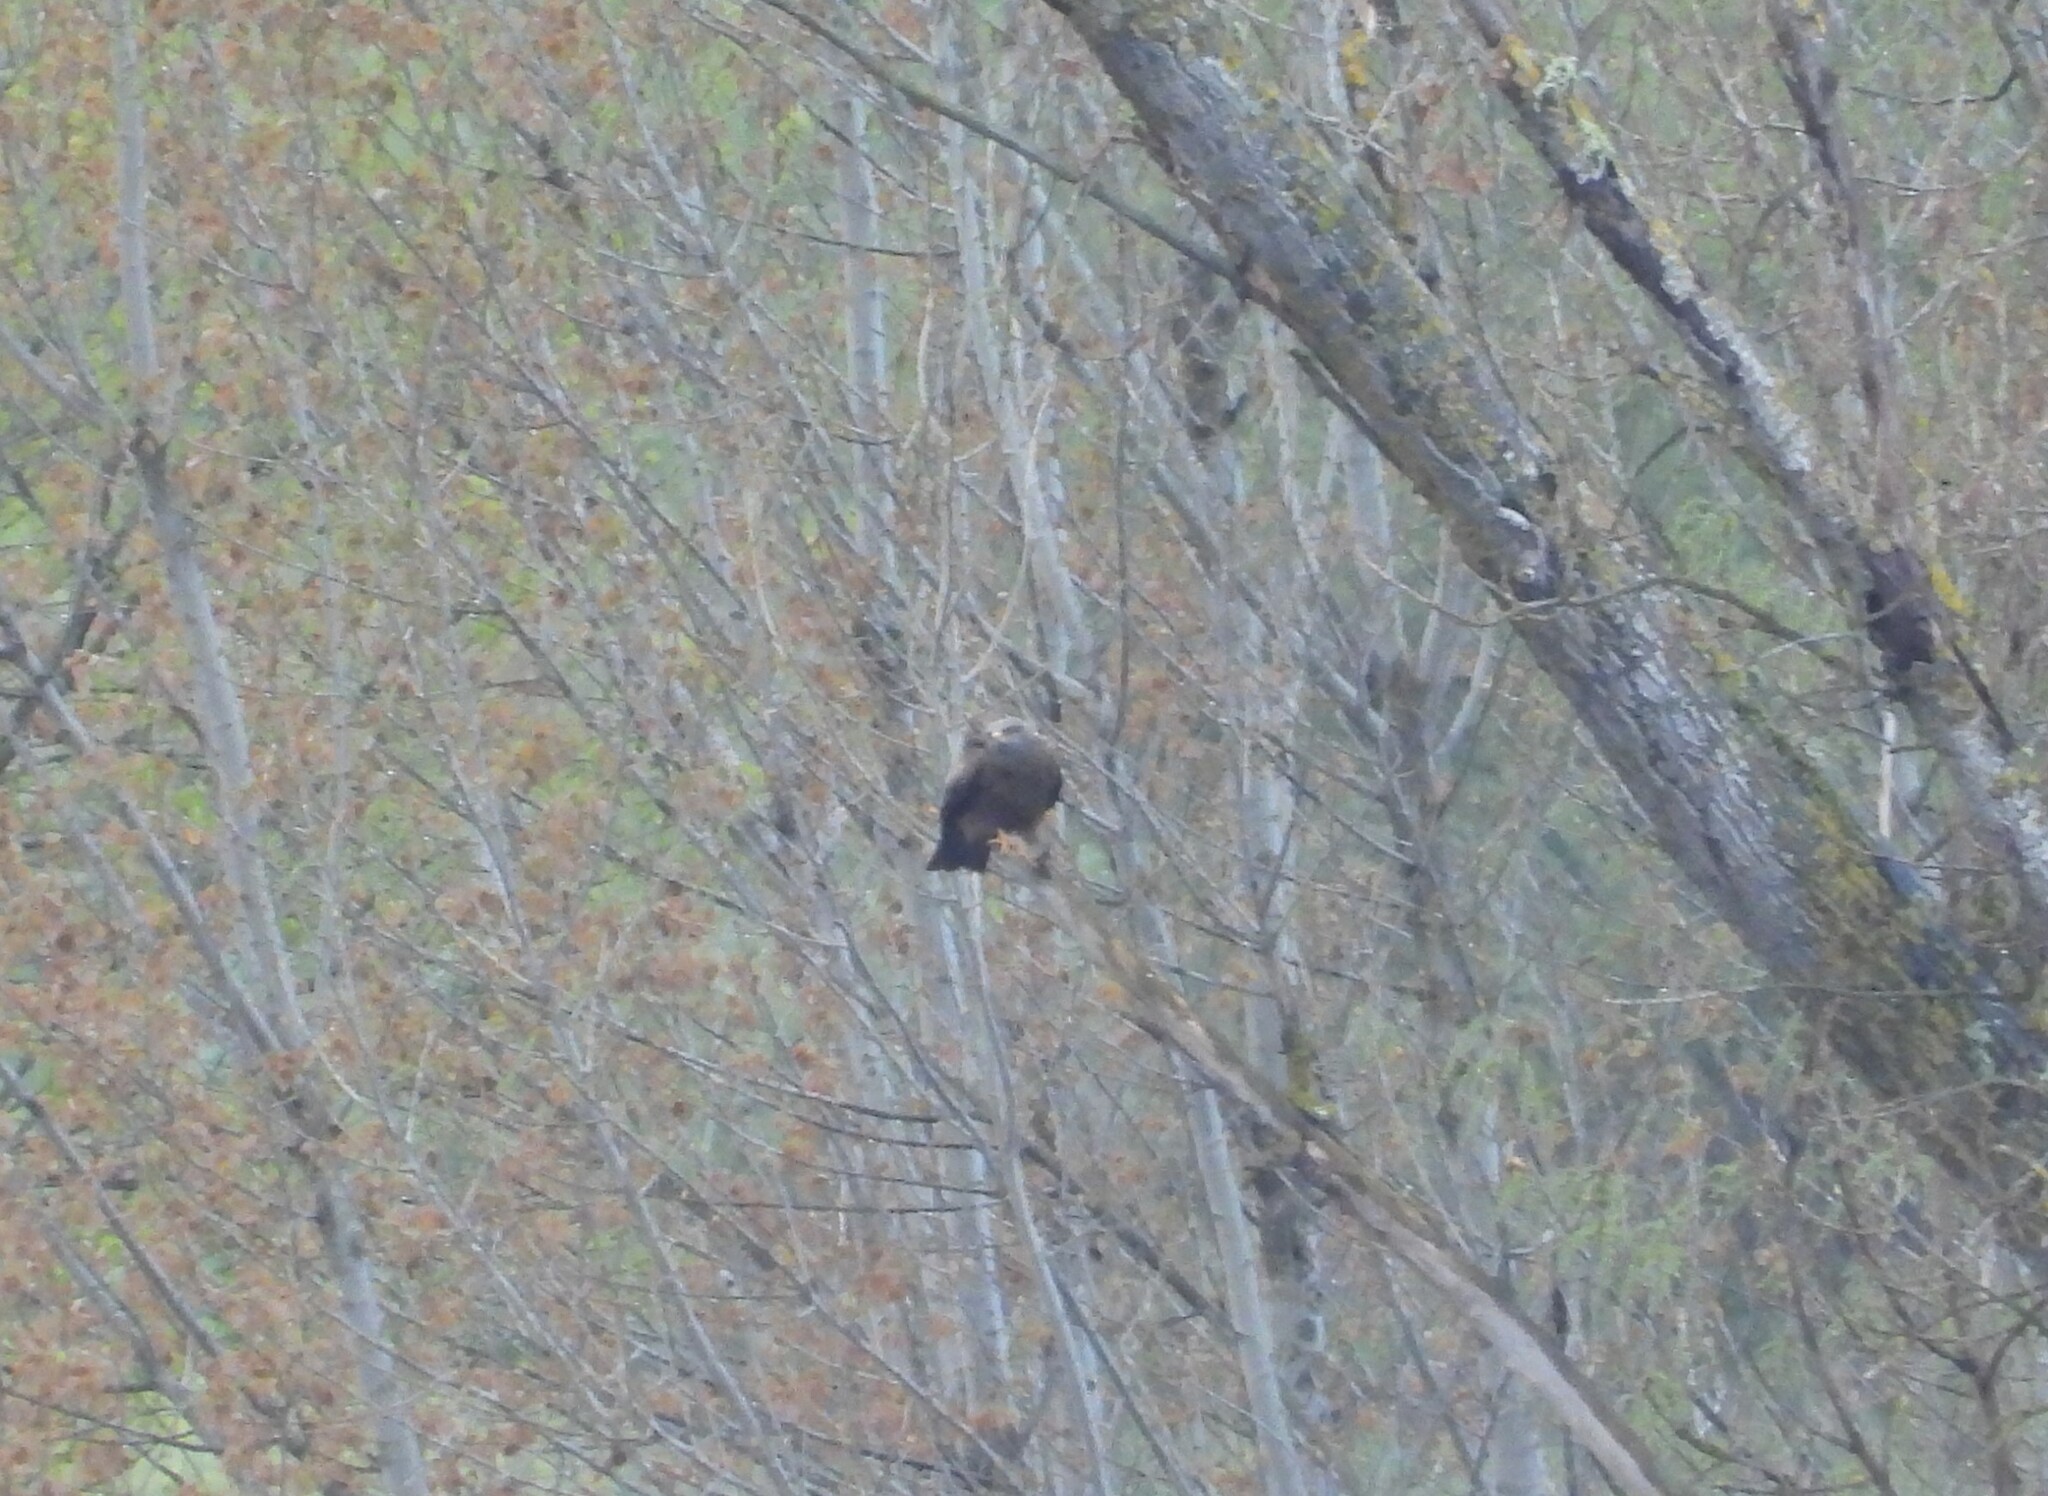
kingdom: Animalia
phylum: Chordata
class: Aves
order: Accipitriformes
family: Accipitridae
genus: Milvus
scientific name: Milvus migrans
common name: Black kite
